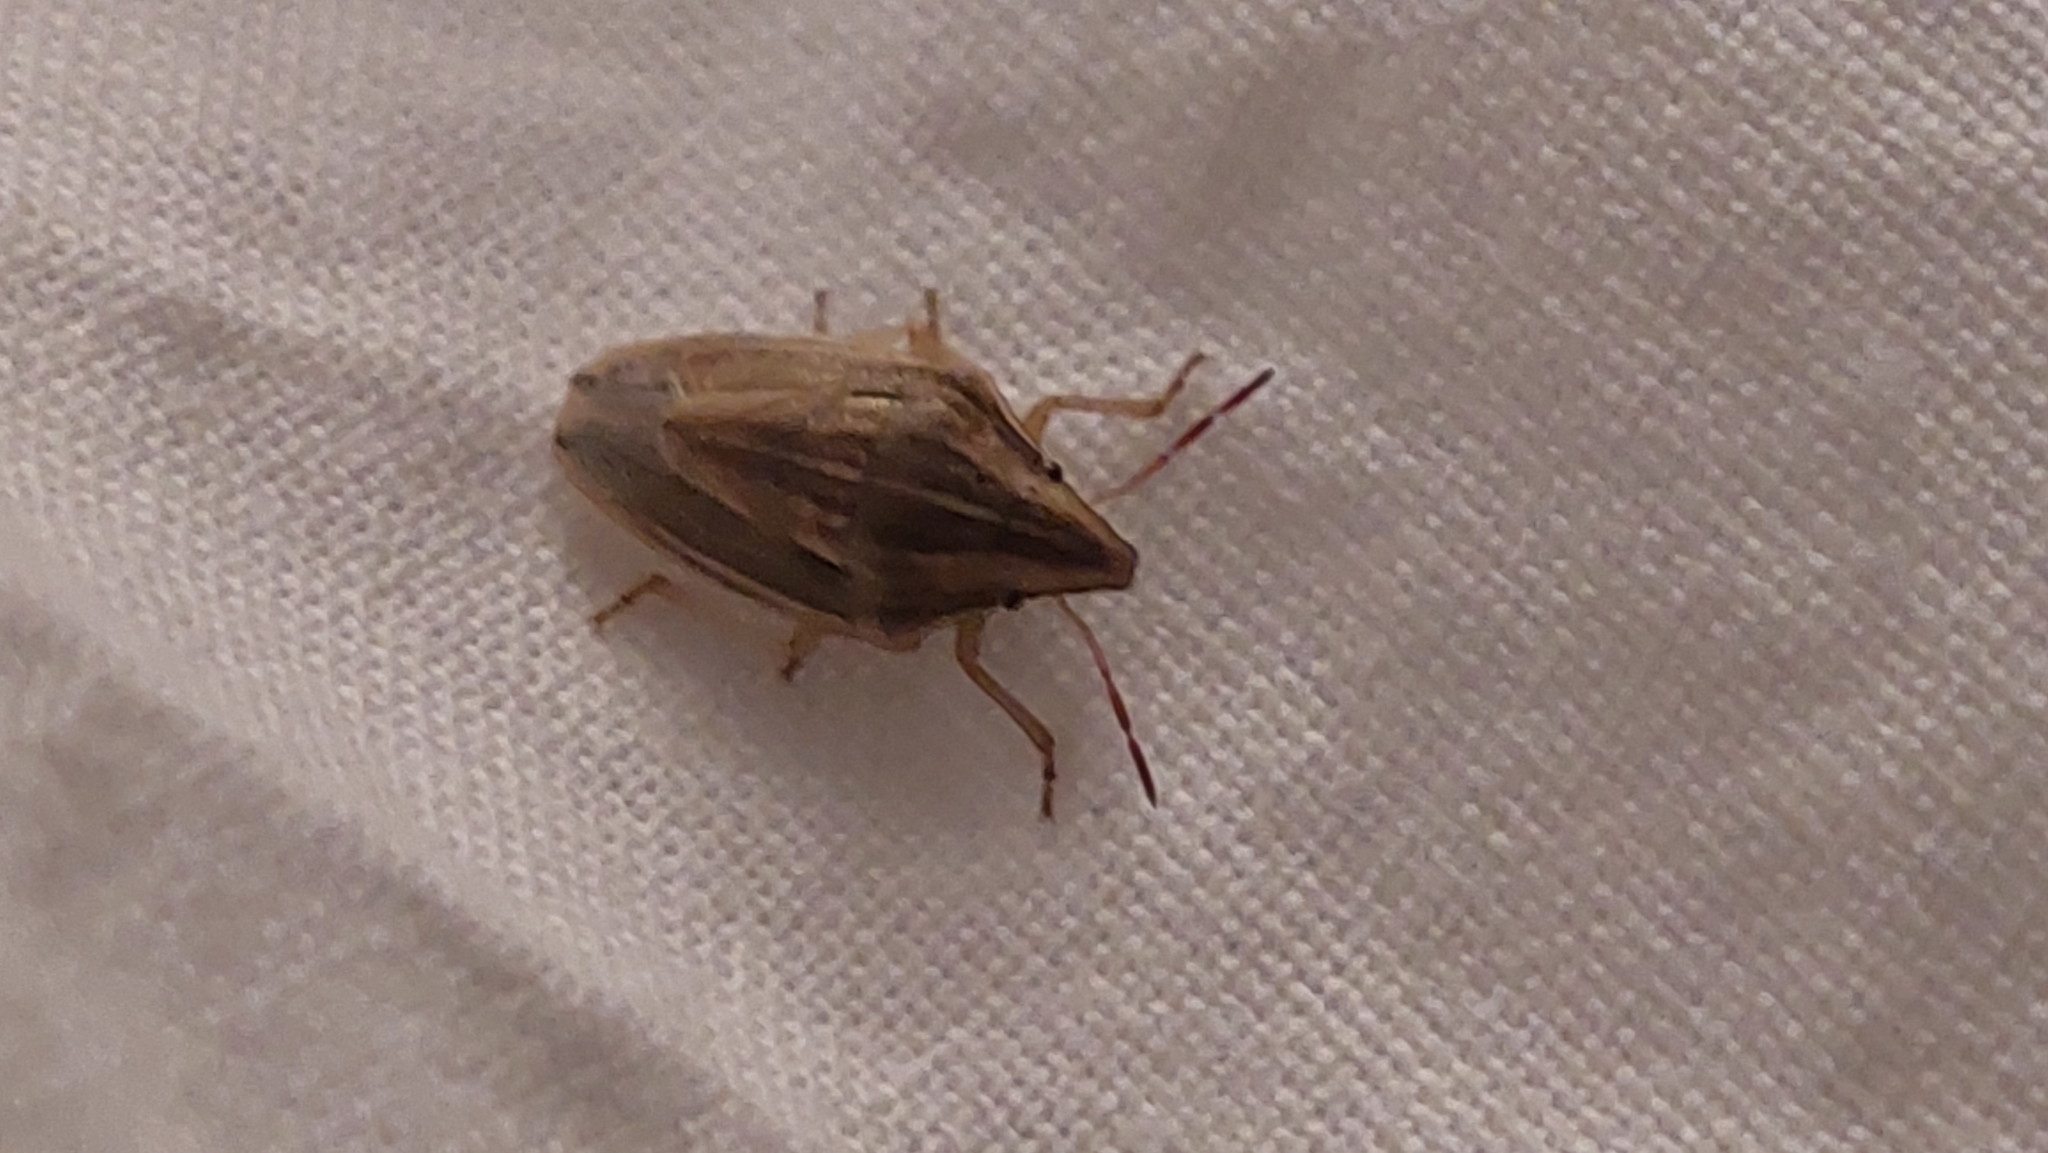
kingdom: Animalia
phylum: Arthropoda
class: Insecta
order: Hemiptera
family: Pentatomidae
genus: Aelia
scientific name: Aelia acuminata
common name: Bishop's mitre
